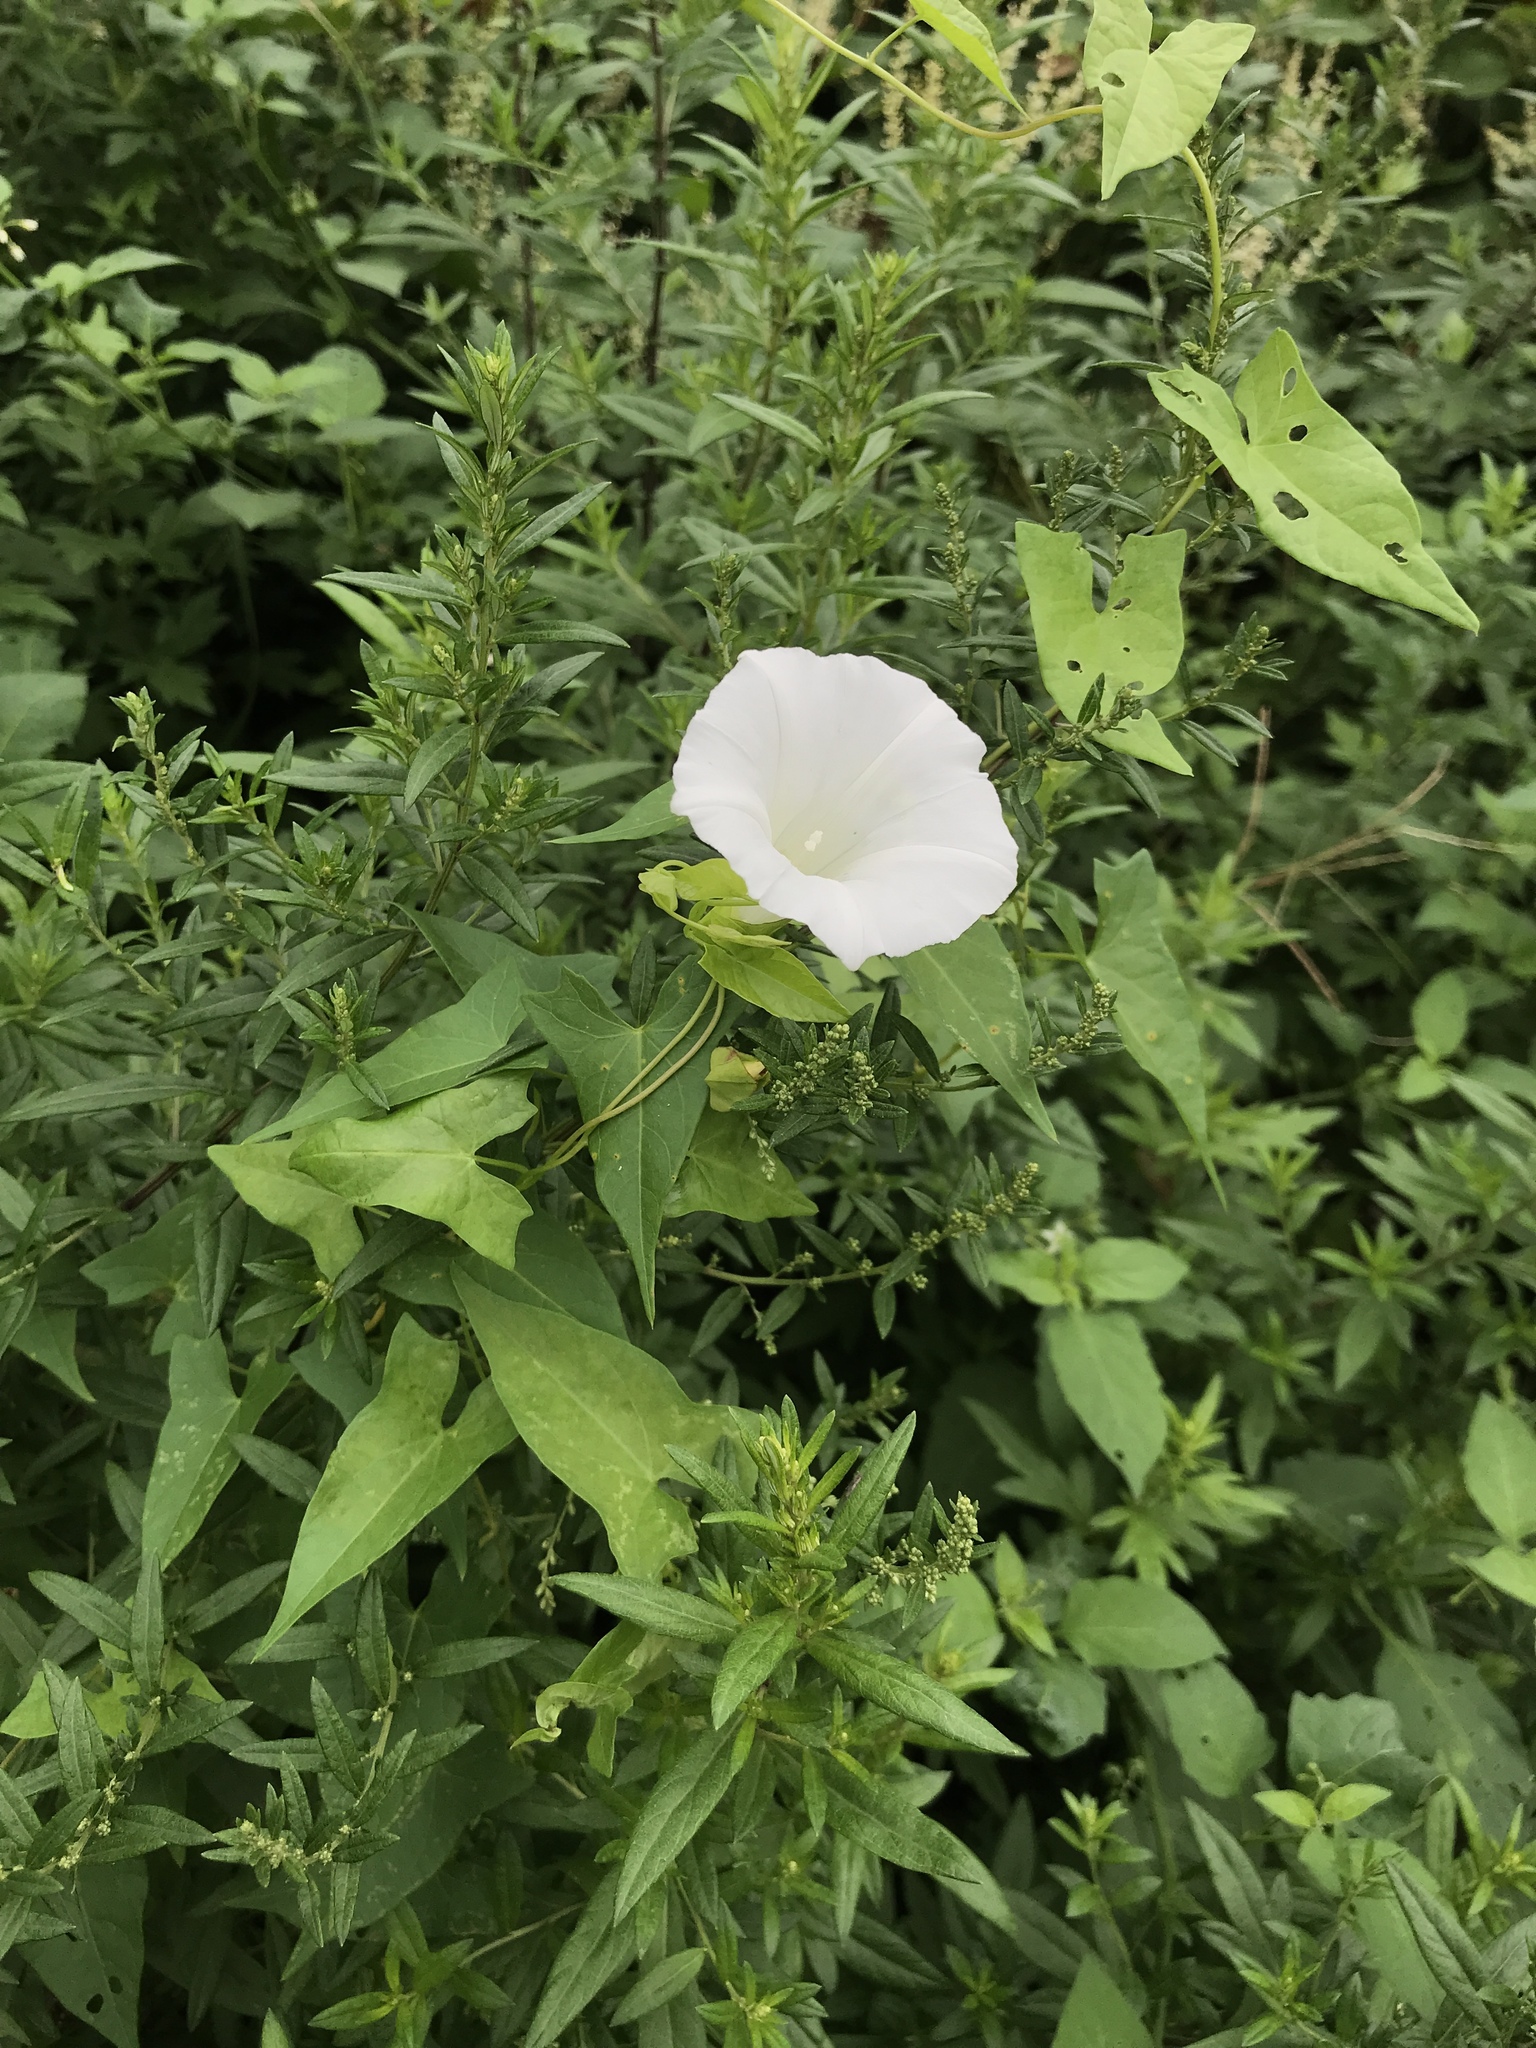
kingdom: Plantae
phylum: Tracheophyta
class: Magnoliopsida
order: Solanales
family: Convolvulaceae
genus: Calystegia
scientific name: Calystegia sepium
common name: Hedge bindweed
